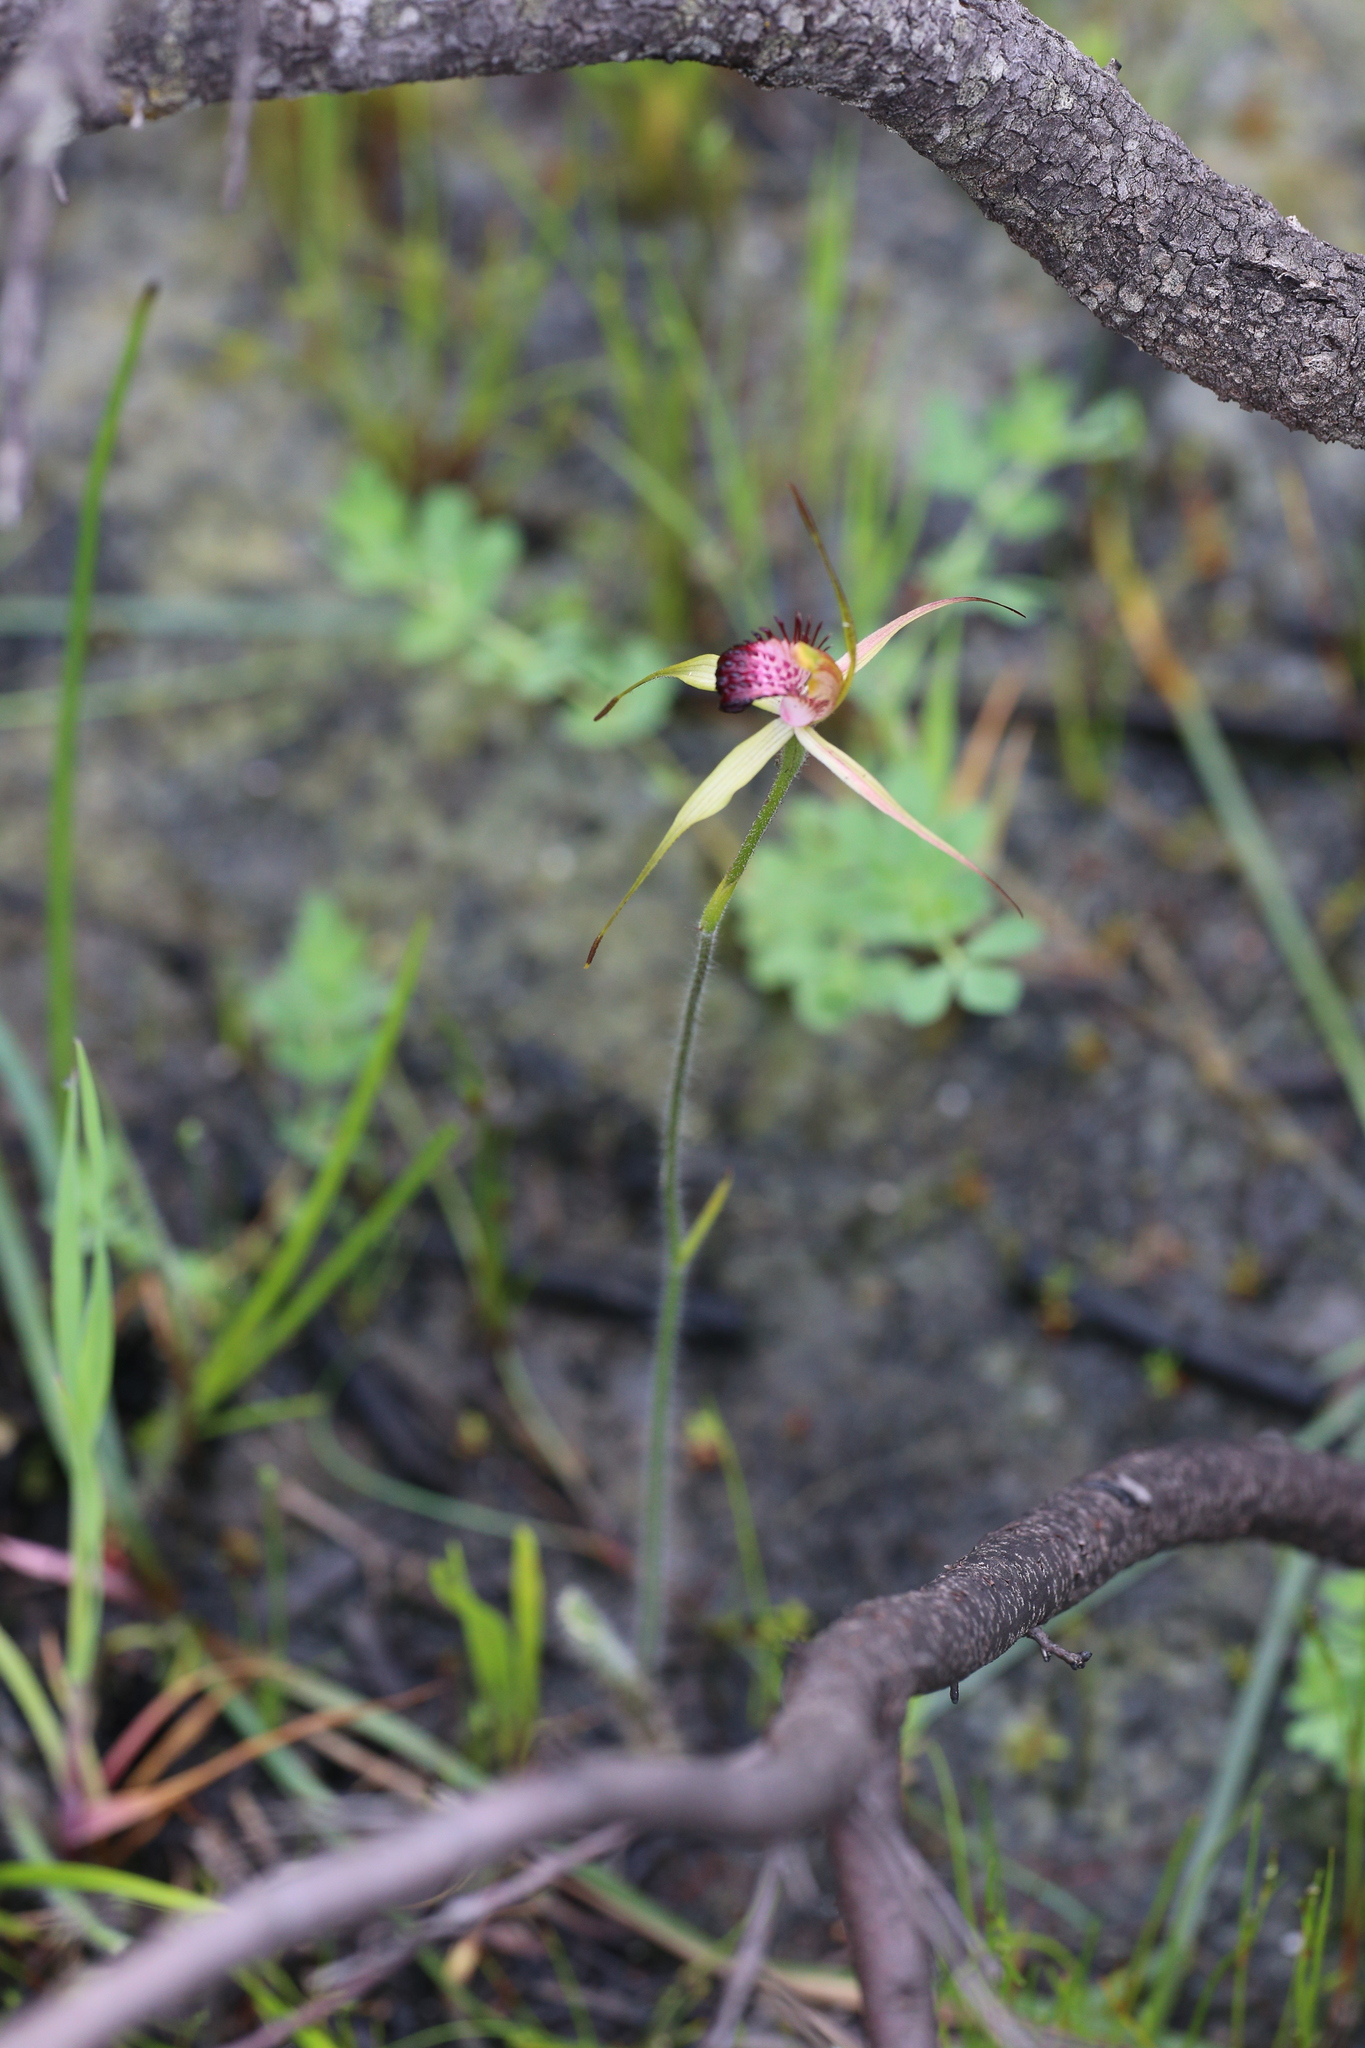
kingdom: Plantae
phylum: Tracheophyta
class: Liliopsida
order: Asparagales
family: Orchidaceae
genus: Caladenia
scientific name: Caladenia paludosa
